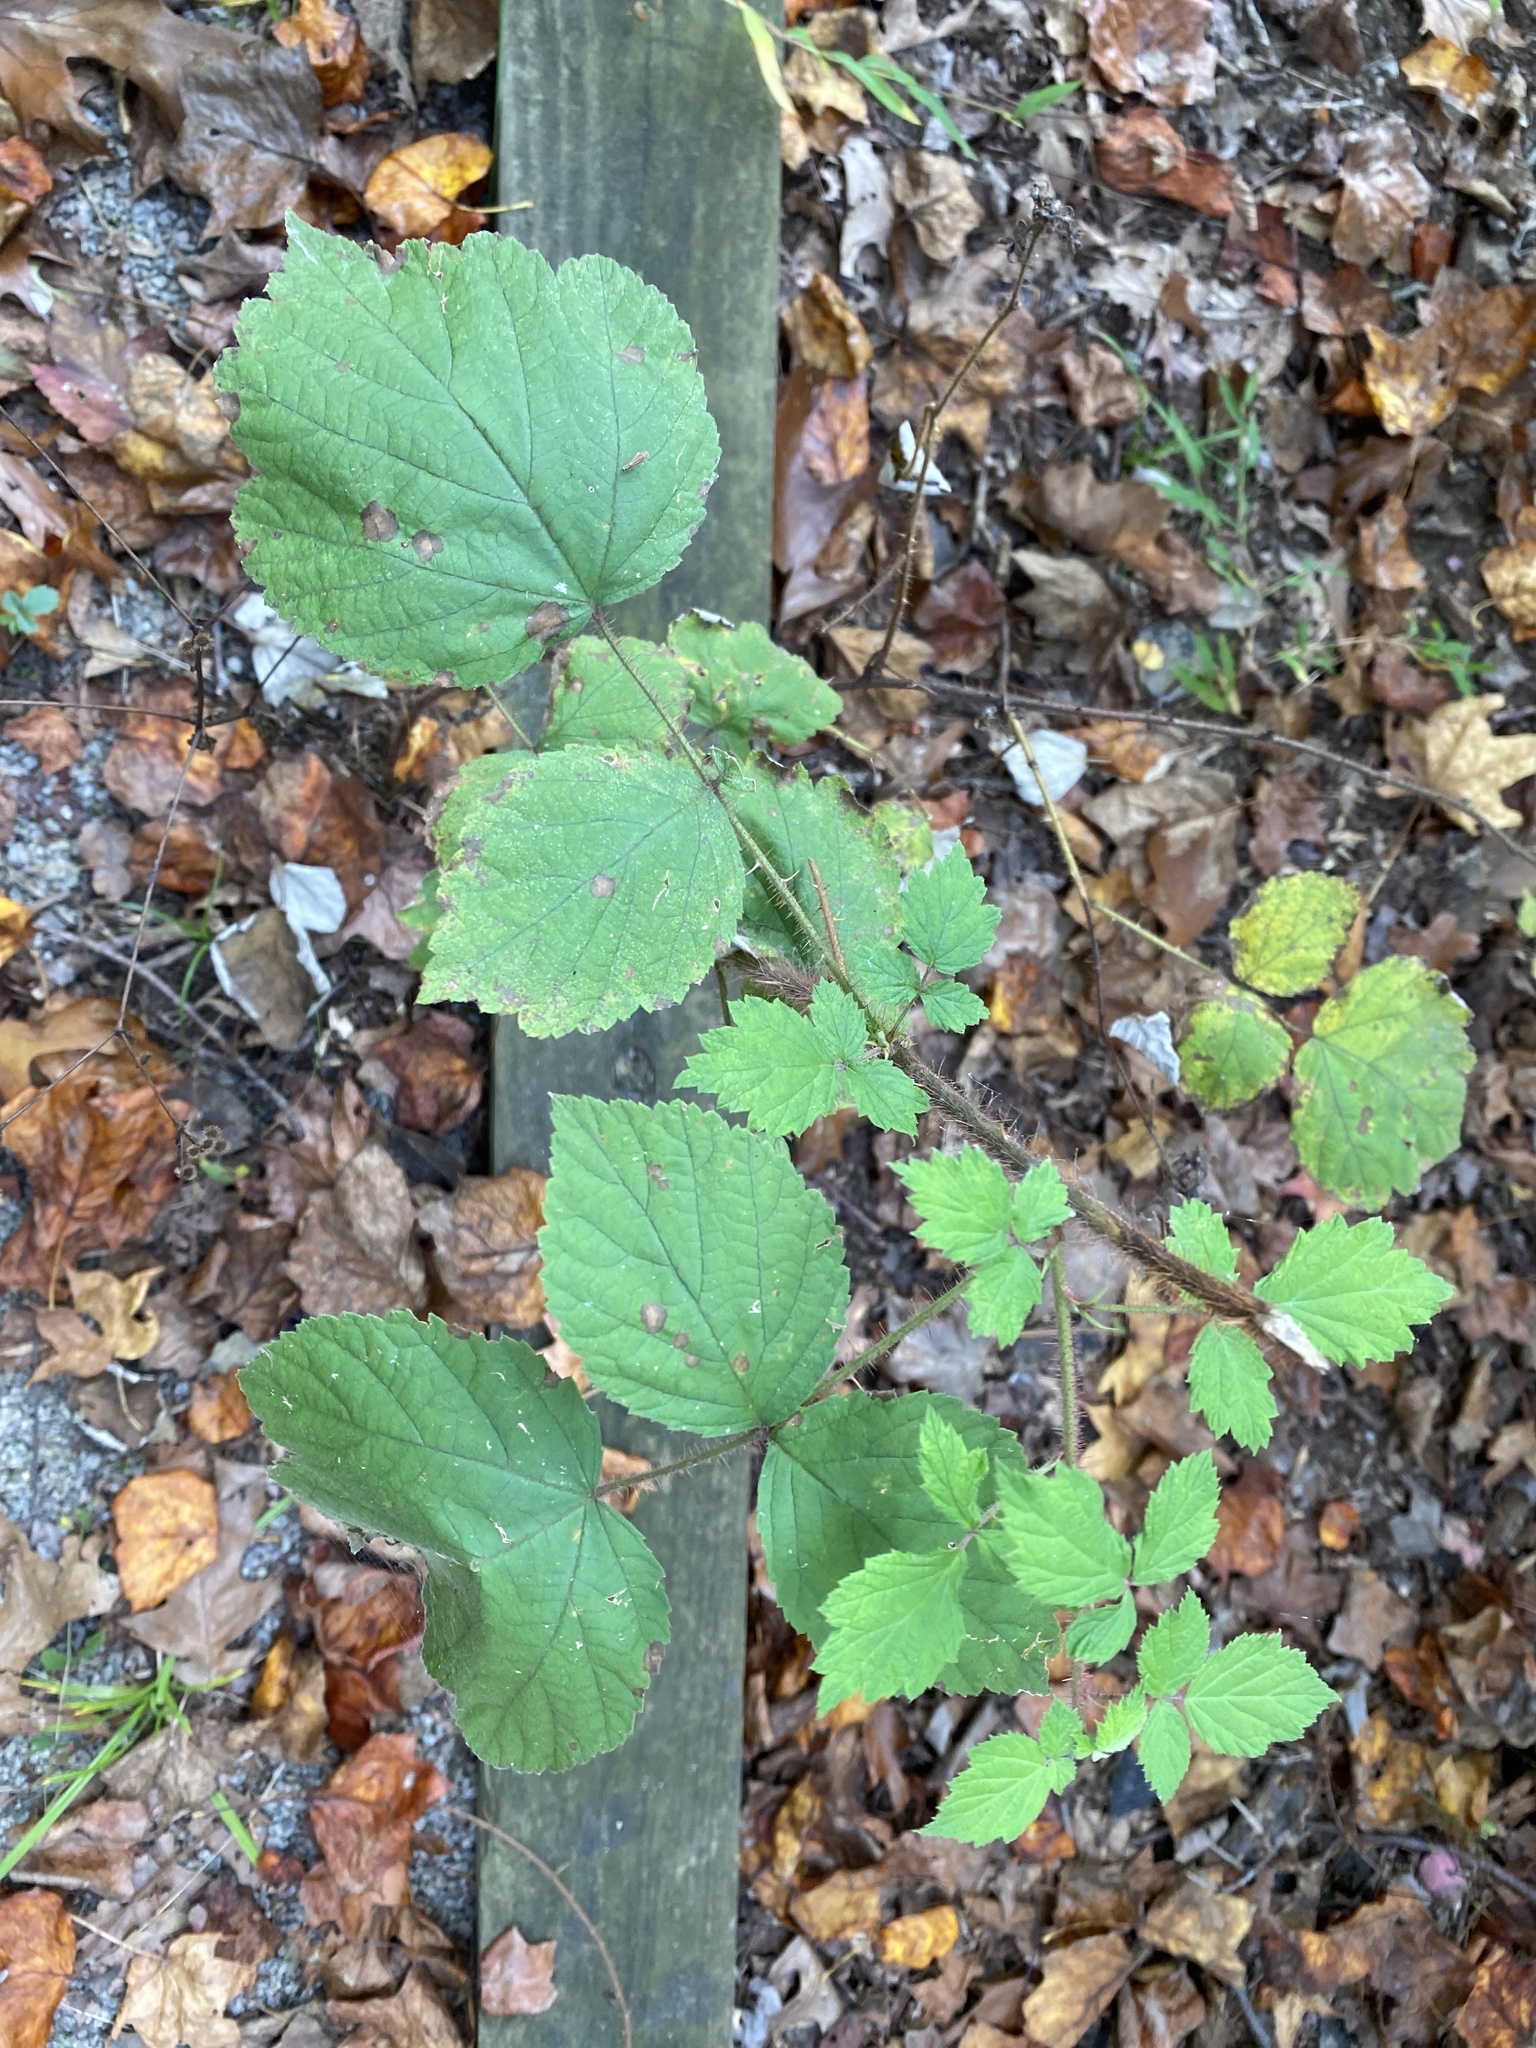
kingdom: Plantae
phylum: Tracheophyta
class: Magnoliopsida
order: Rosales
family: Rosaceae
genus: Rubus
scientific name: Rubus phoenicolasius
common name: Japanese wineberry
